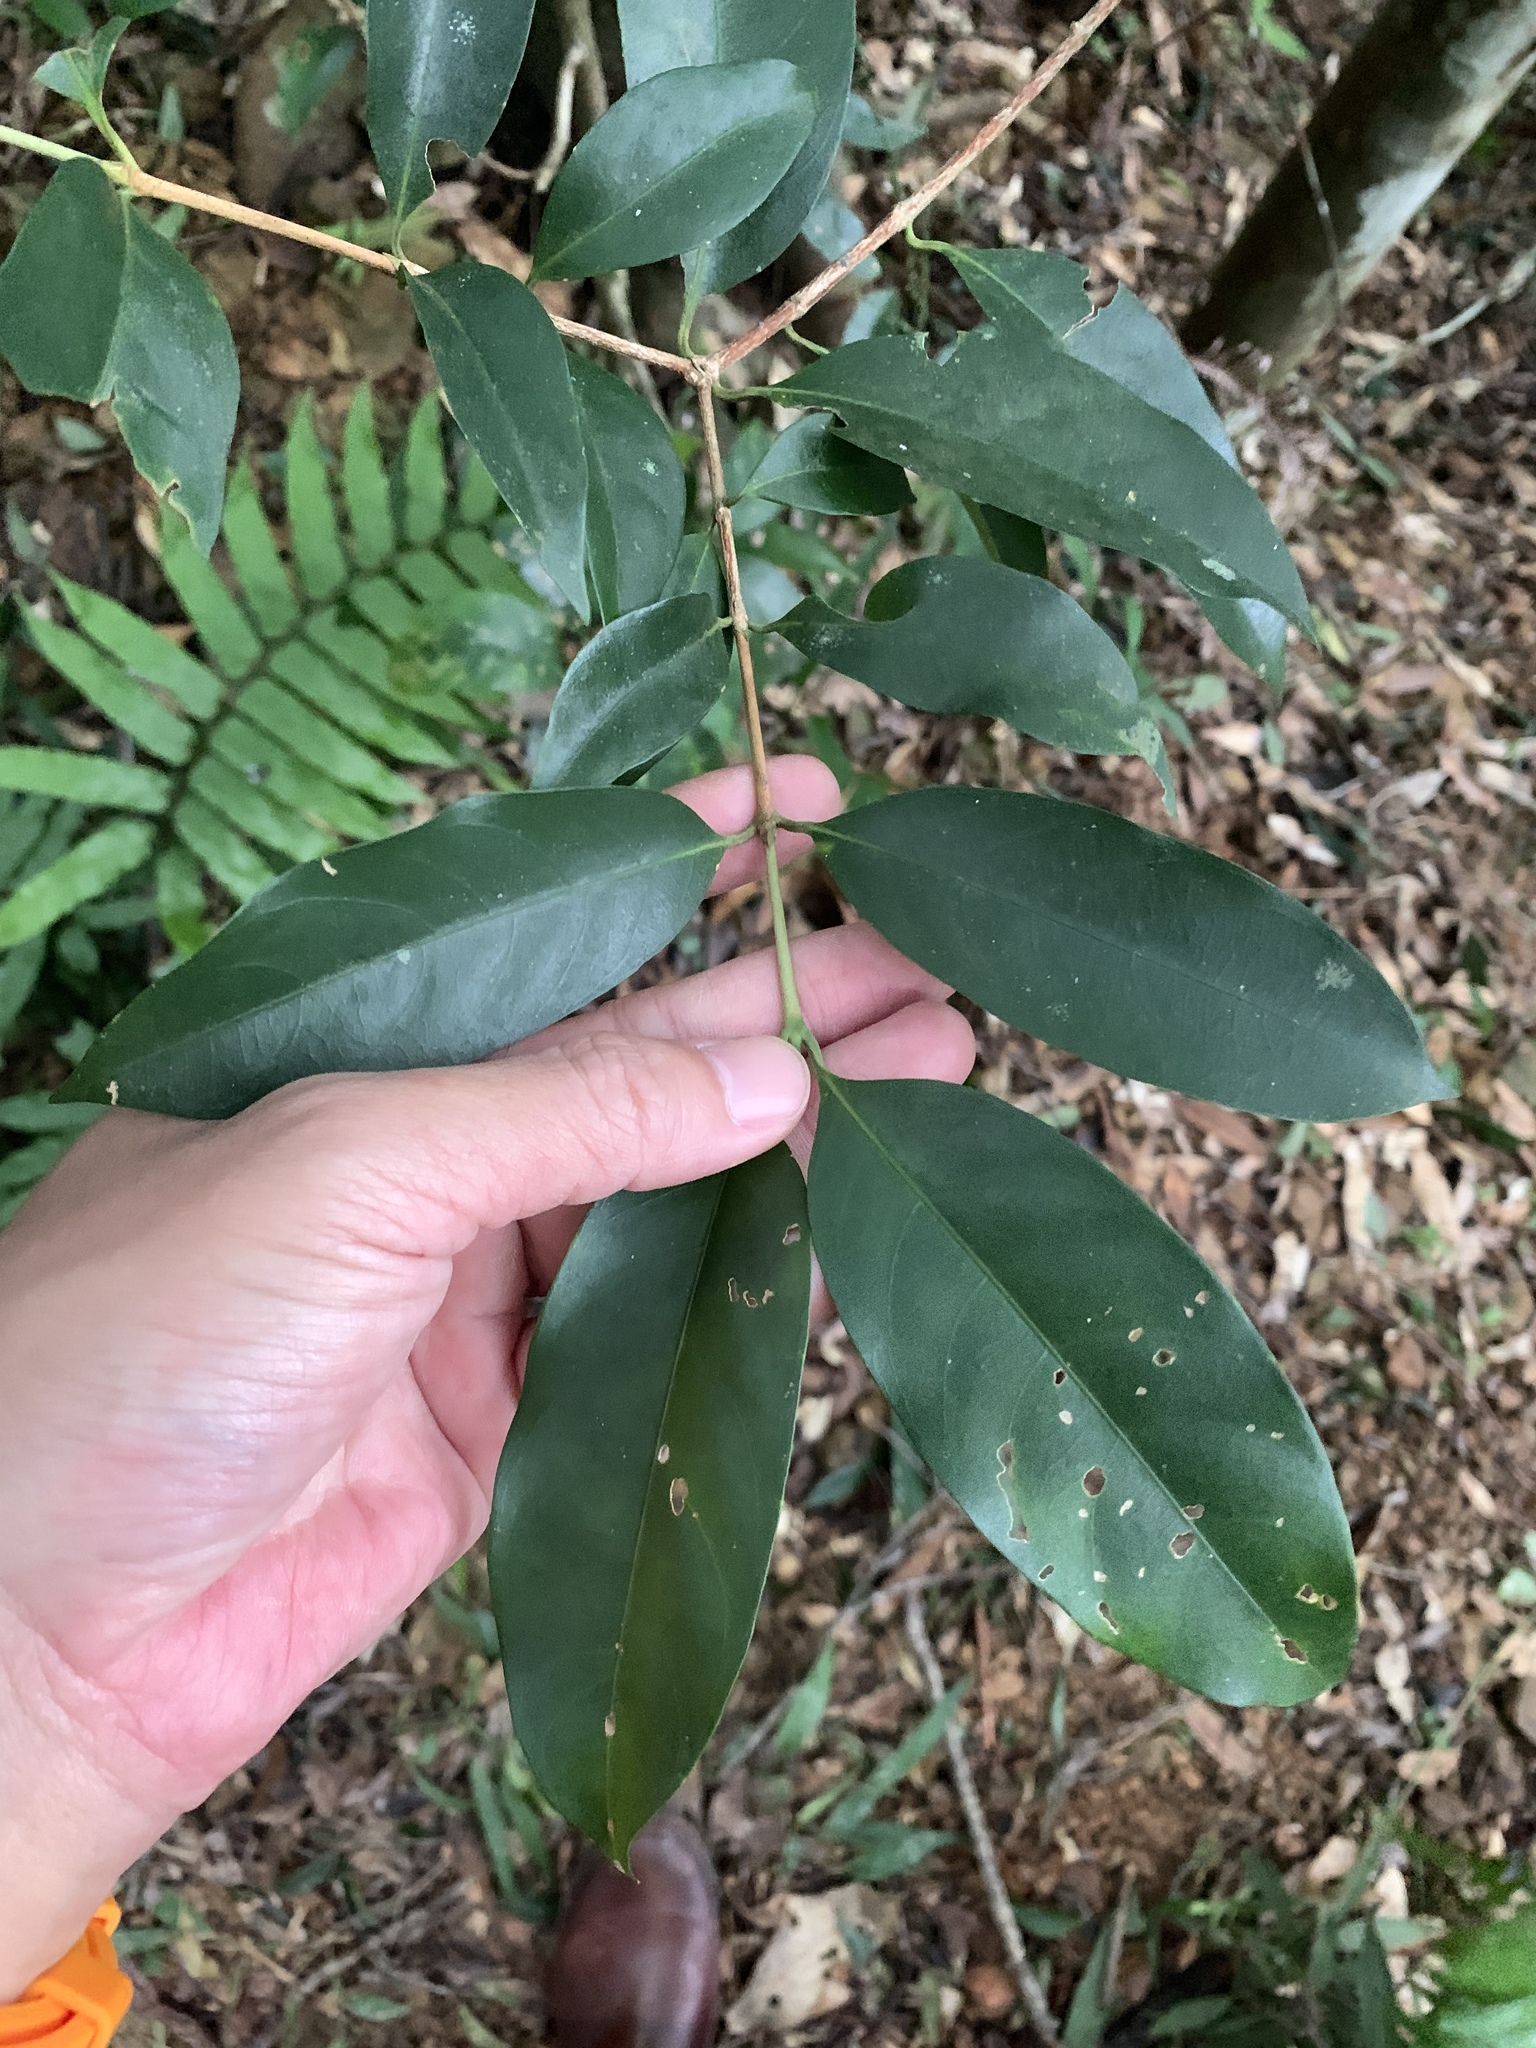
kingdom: Plantae
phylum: Tracheophyta
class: Magnoliopsida
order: Gentianales
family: Rubiaceae
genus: Diplospora
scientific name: Diplospora dubia
